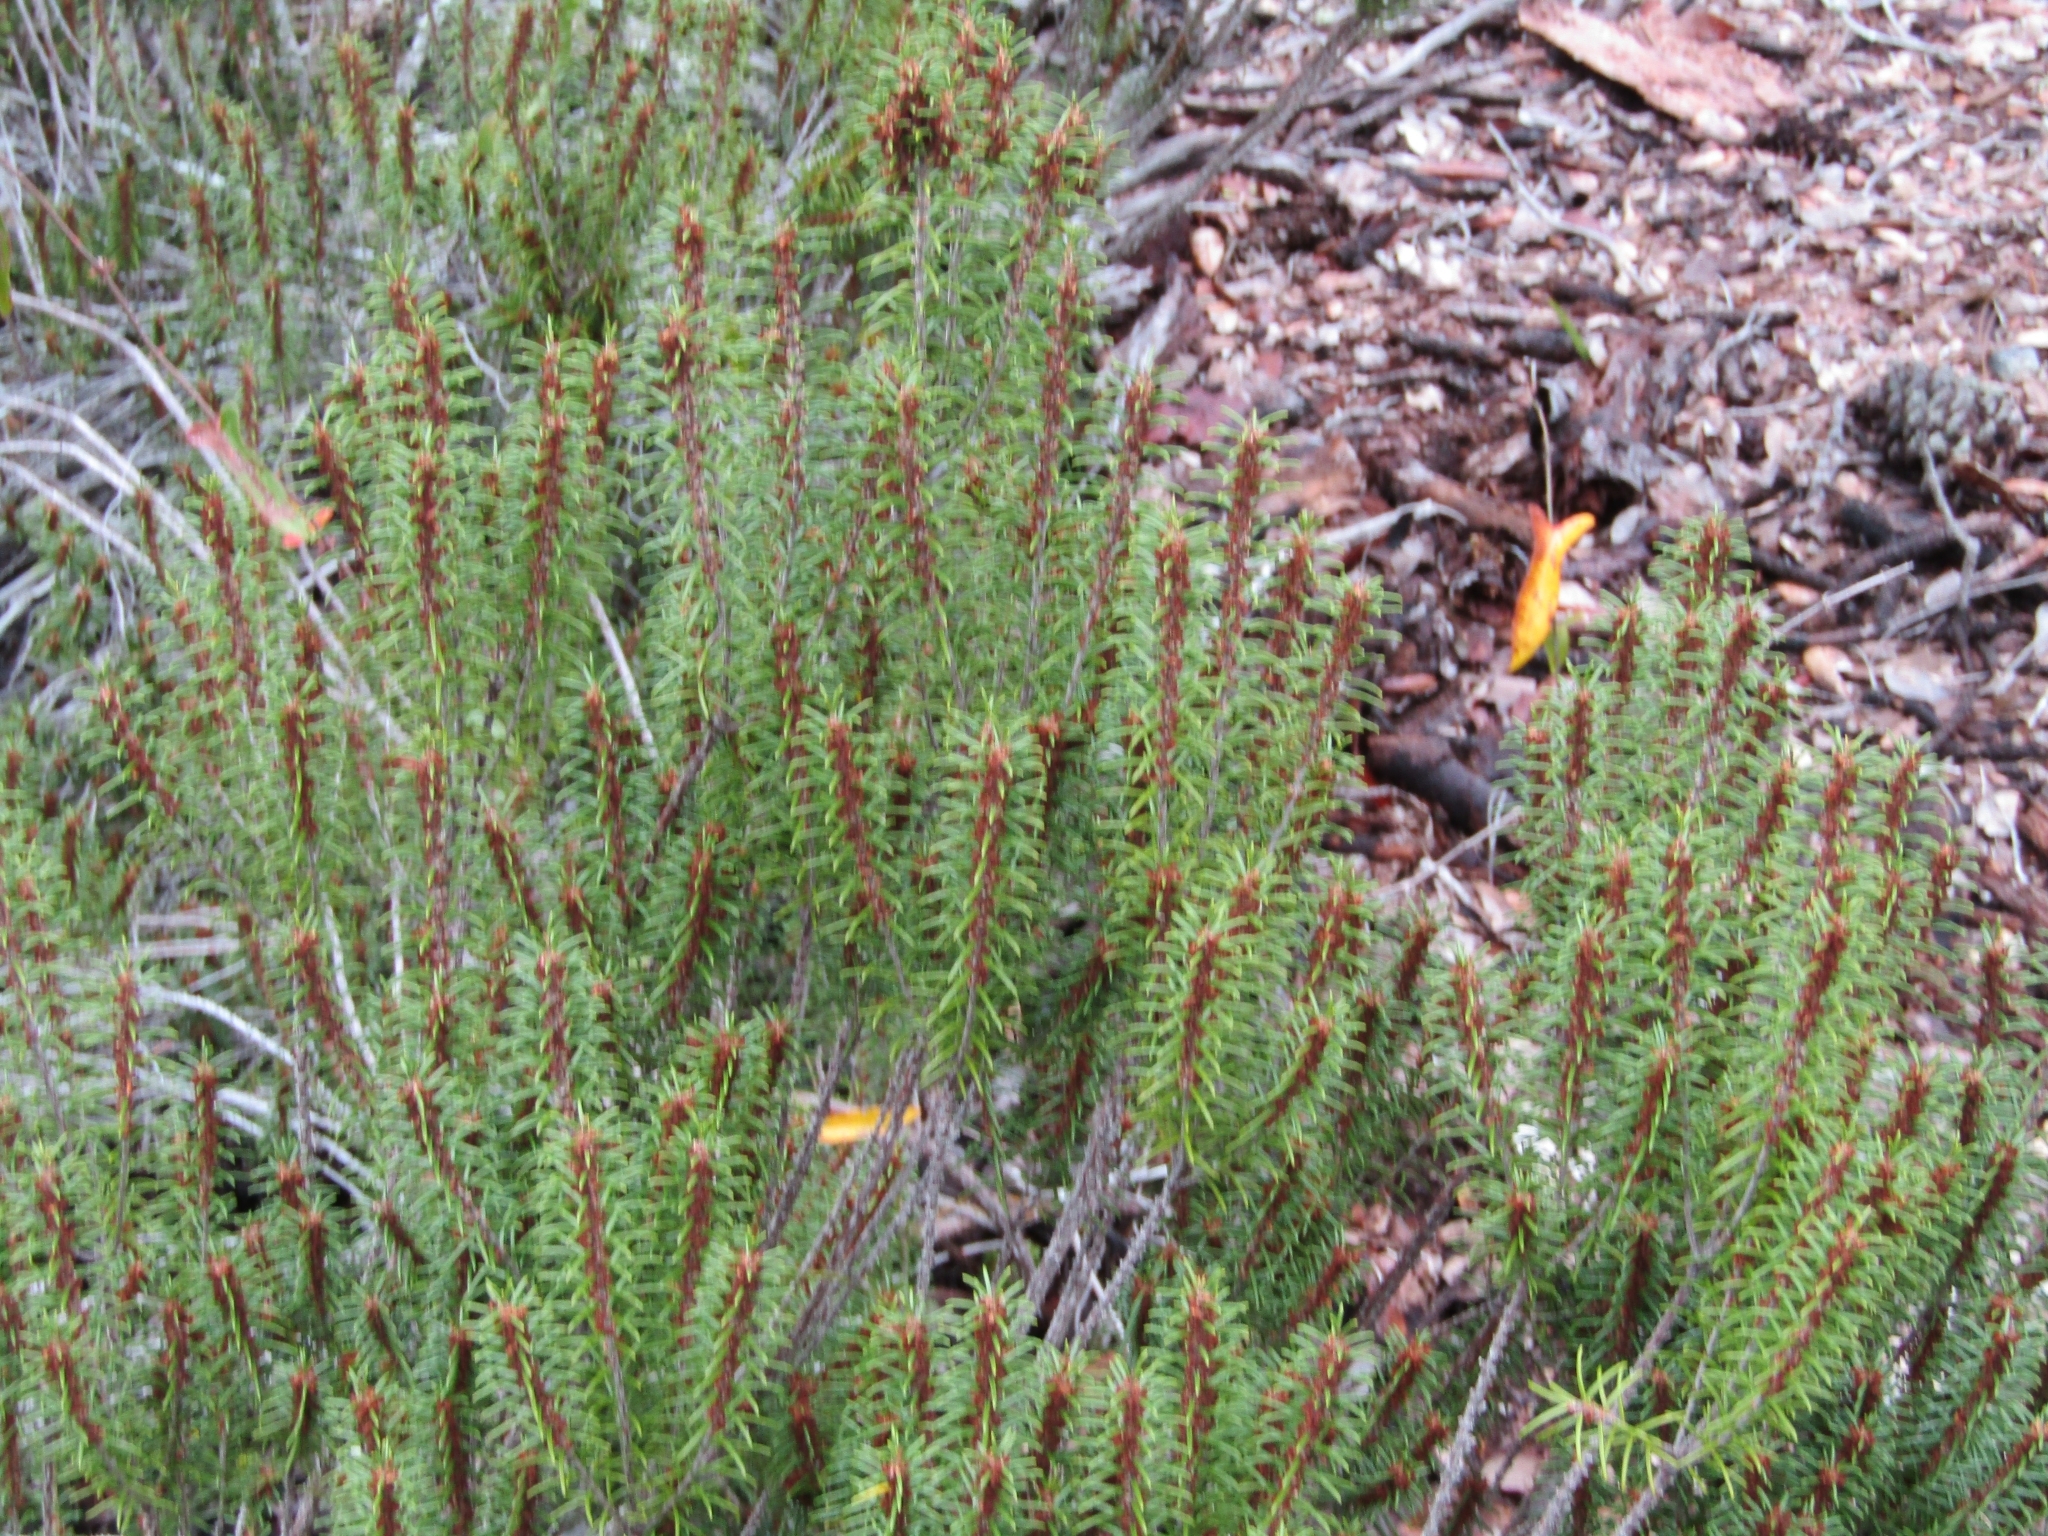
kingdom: Plantae
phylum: Tracheophyta
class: Magnoliopsida
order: Ericales
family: Ericaceae
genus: Ceratiola
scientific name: Ceratiola ericoides
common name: Sandhill-rosemary
